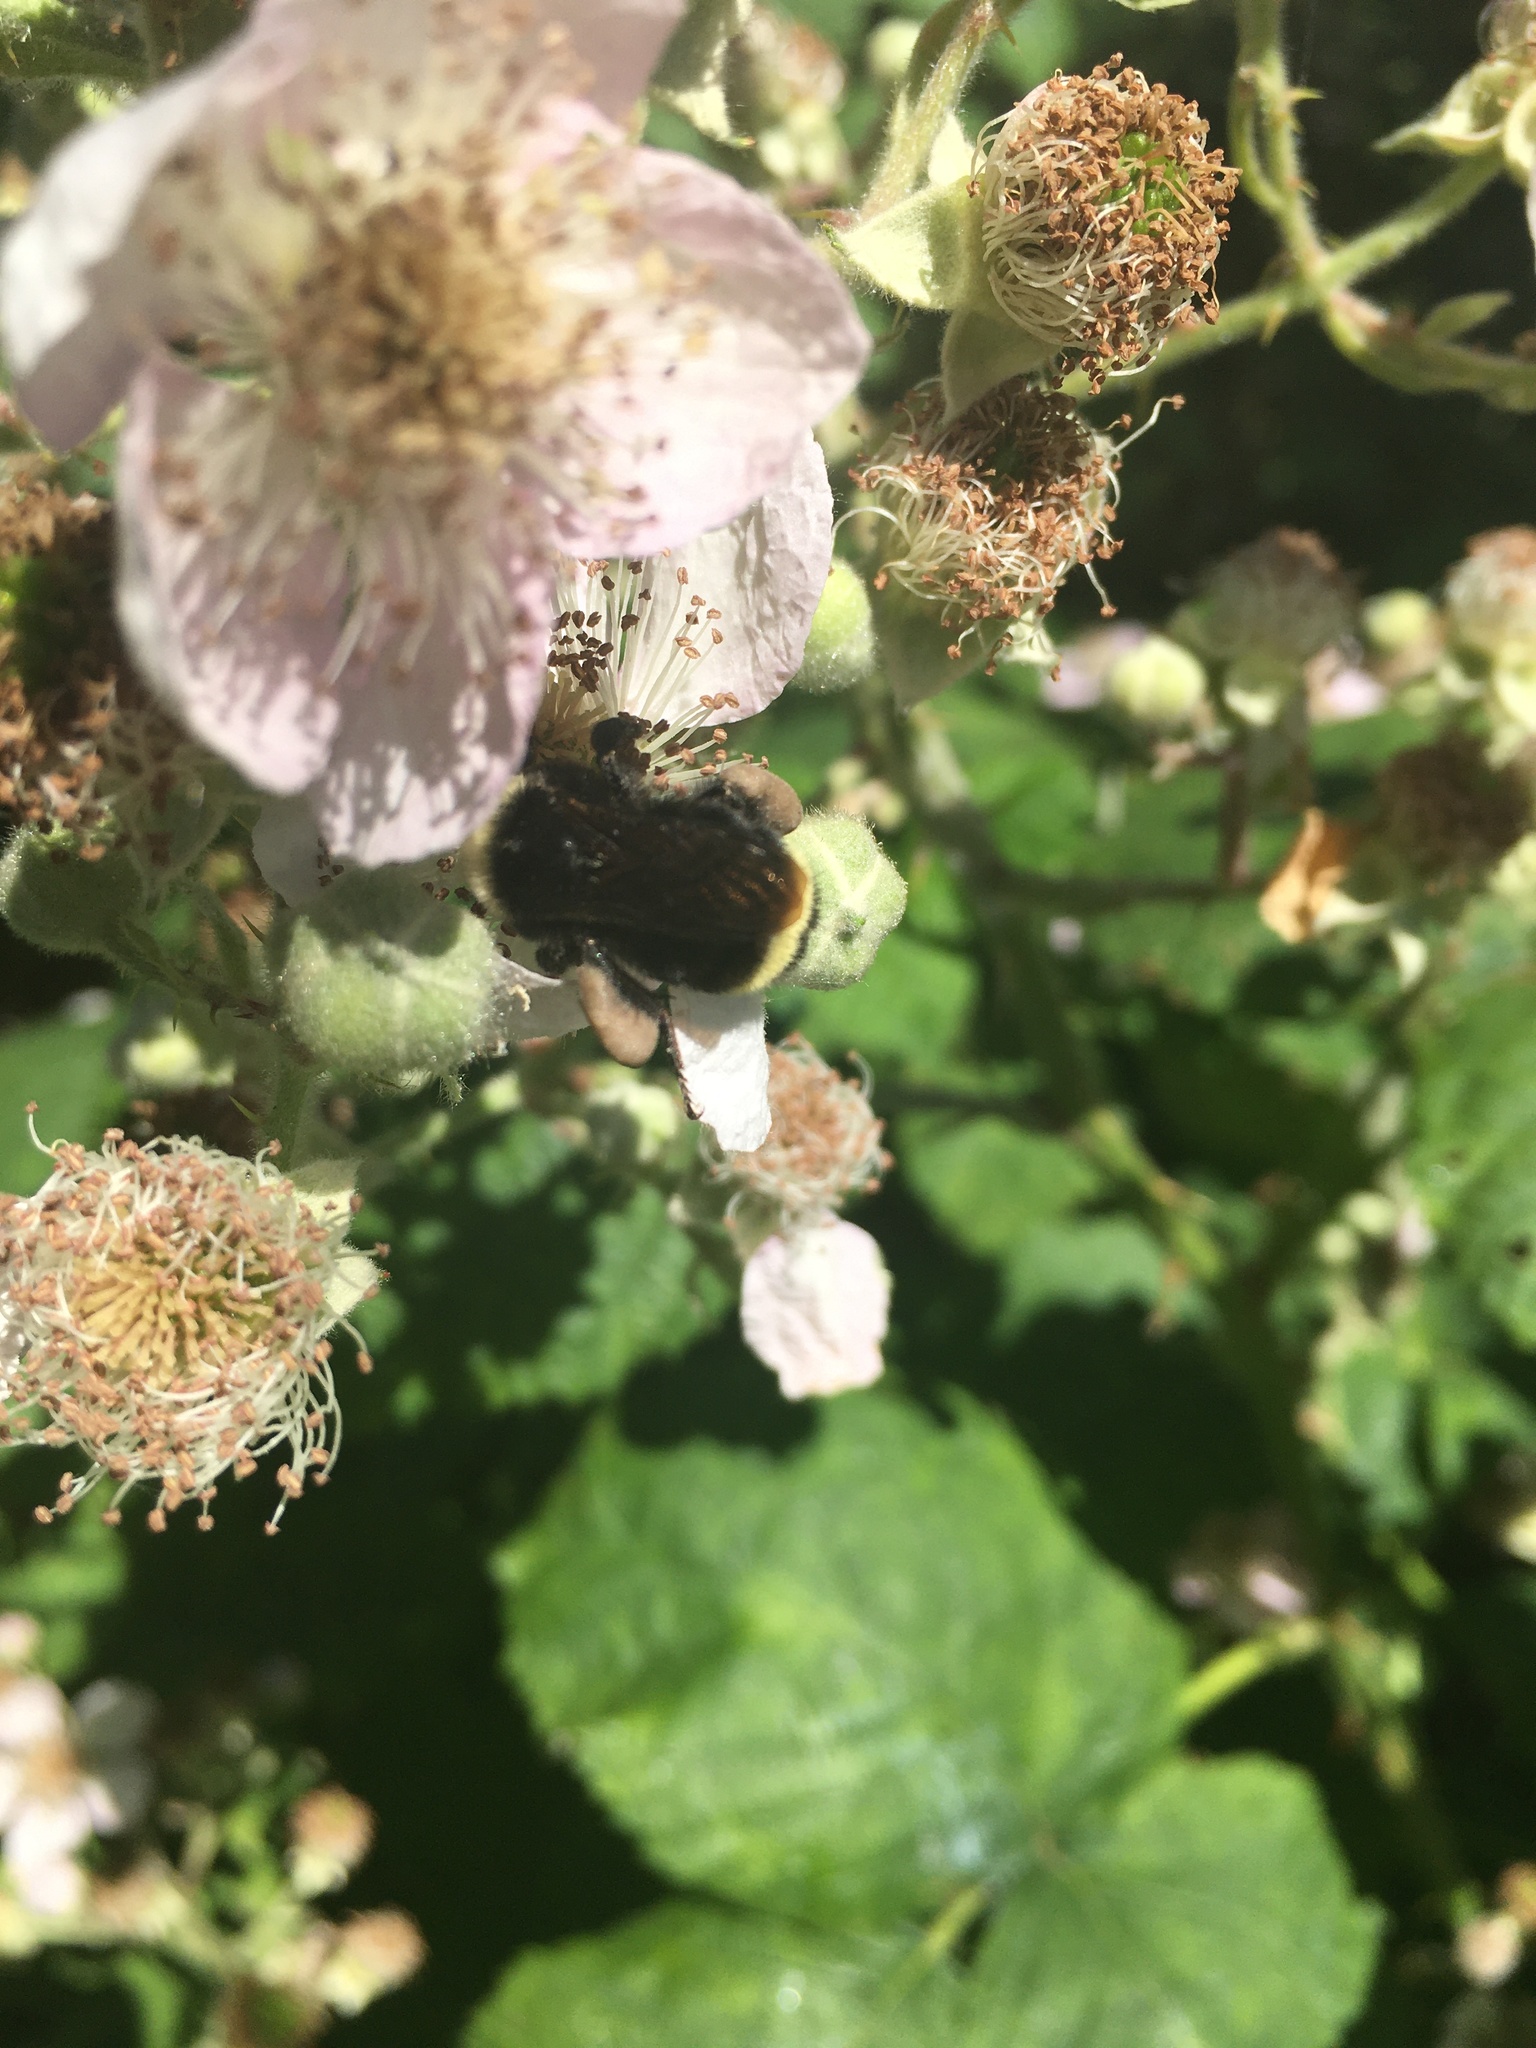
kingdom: Animalia
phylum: Arthropoda
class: Insecta
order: Hymenoptera
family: Apidae
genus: Bombus
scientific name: Bombus vosnesenskii
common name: Vosnesensky bumble bee
